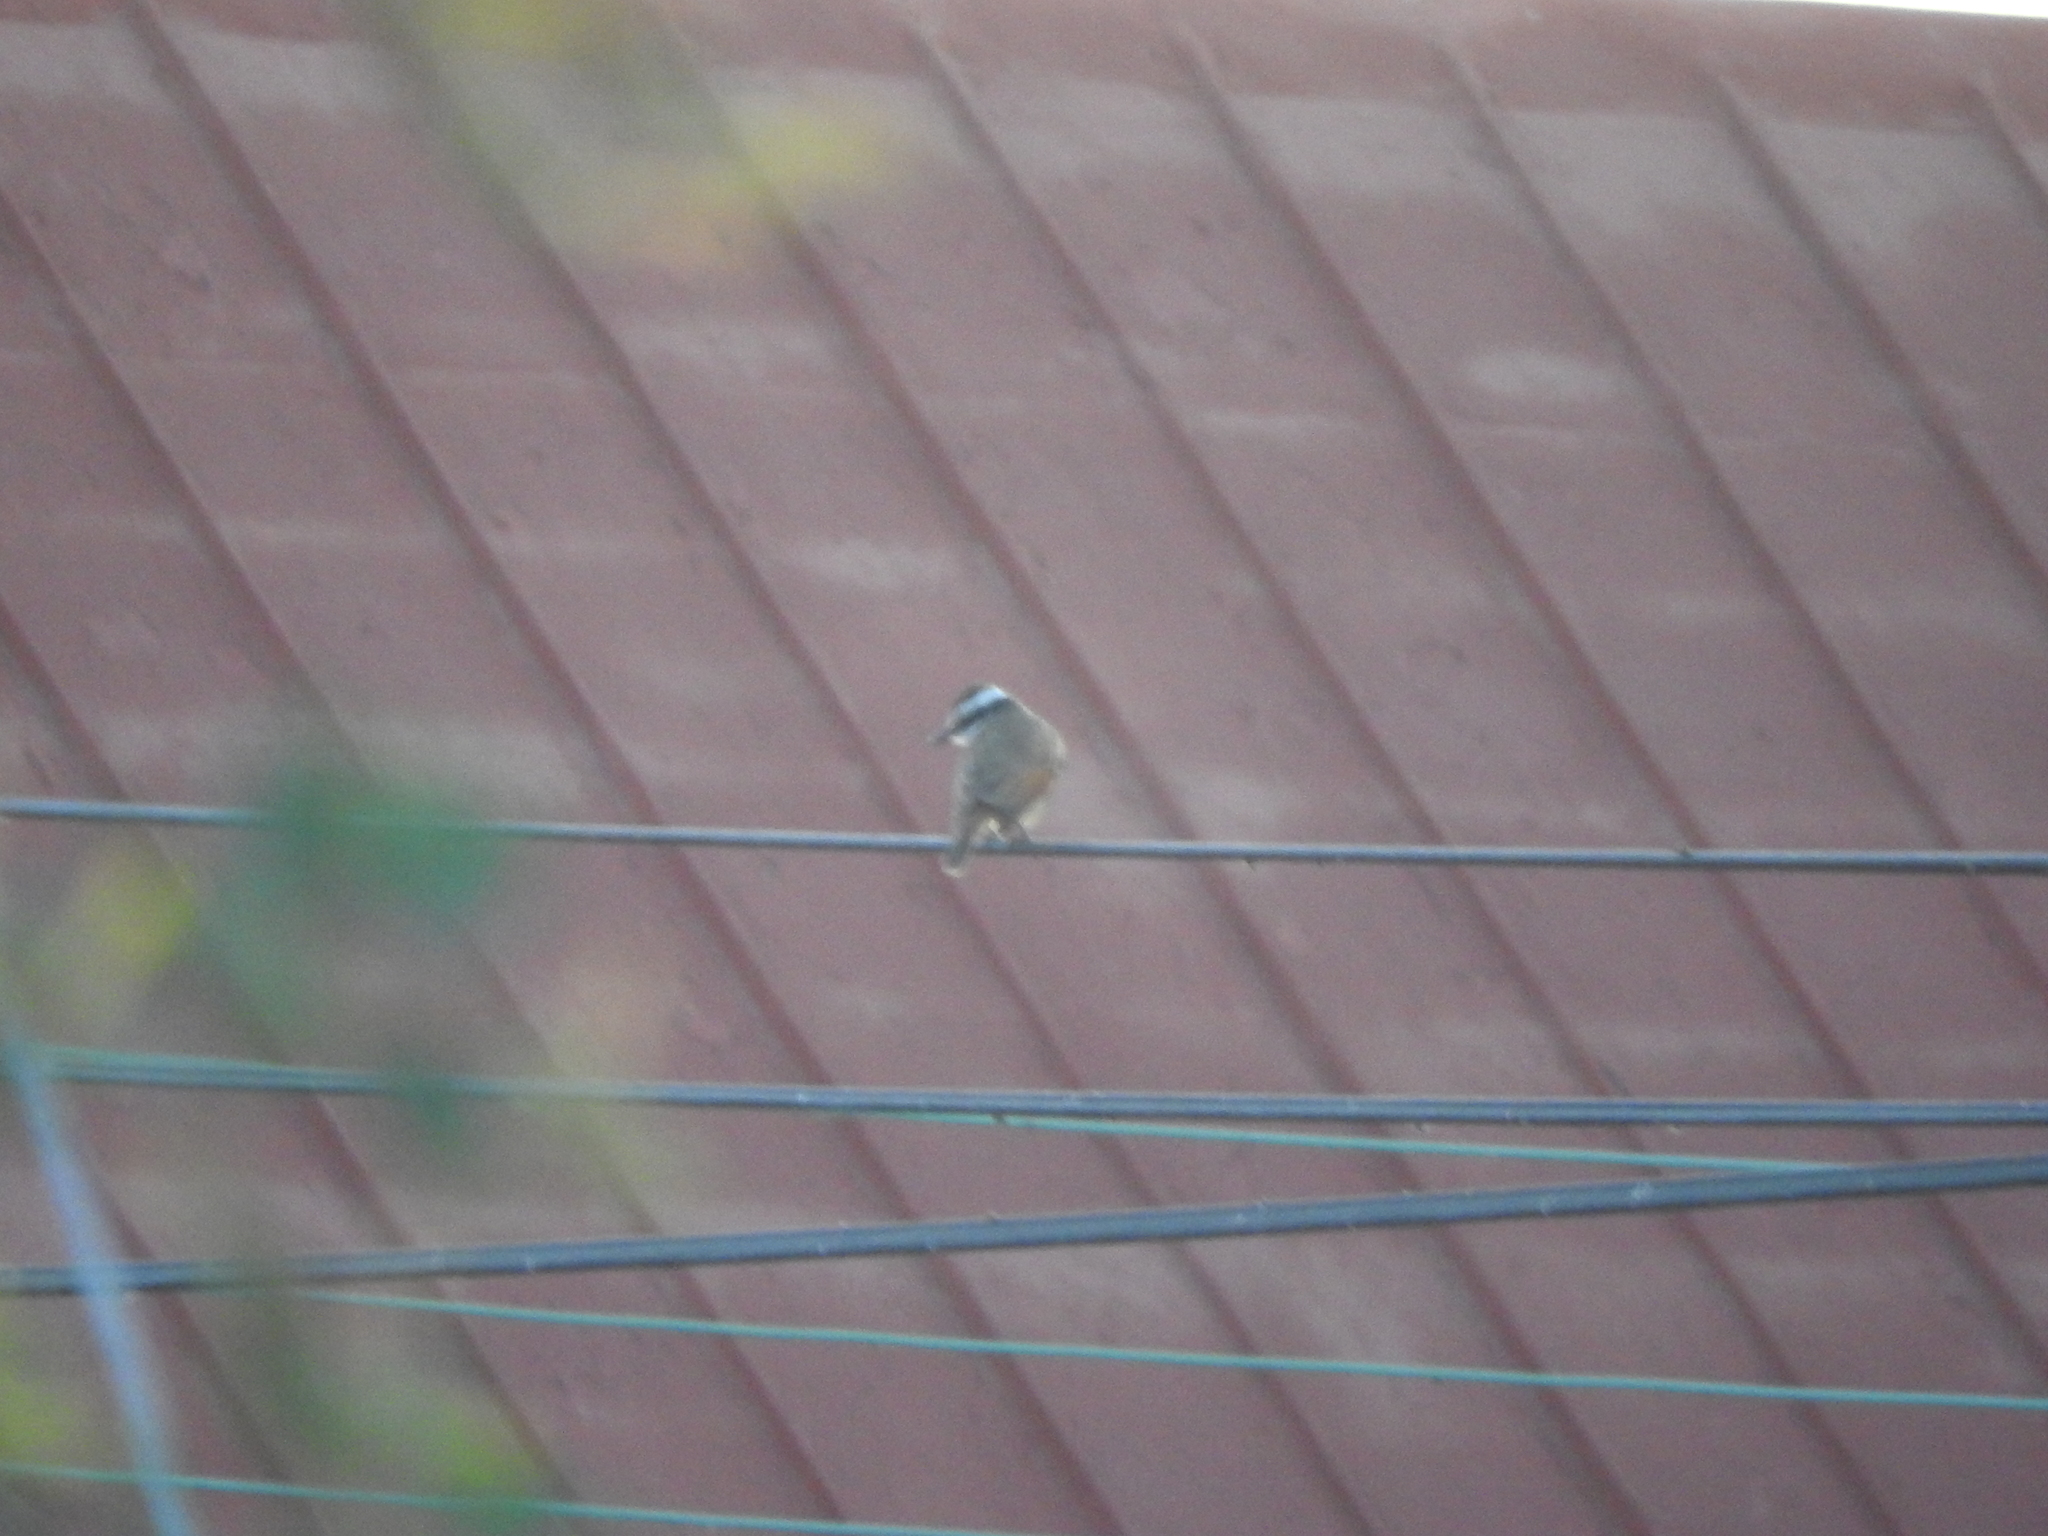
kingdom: Animalia
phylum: Chordata
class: Aves
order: Passeriformes
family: Tyrannidae
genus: Myiozetetes
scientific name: Myiozetetes similis
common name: Social flycatcher
